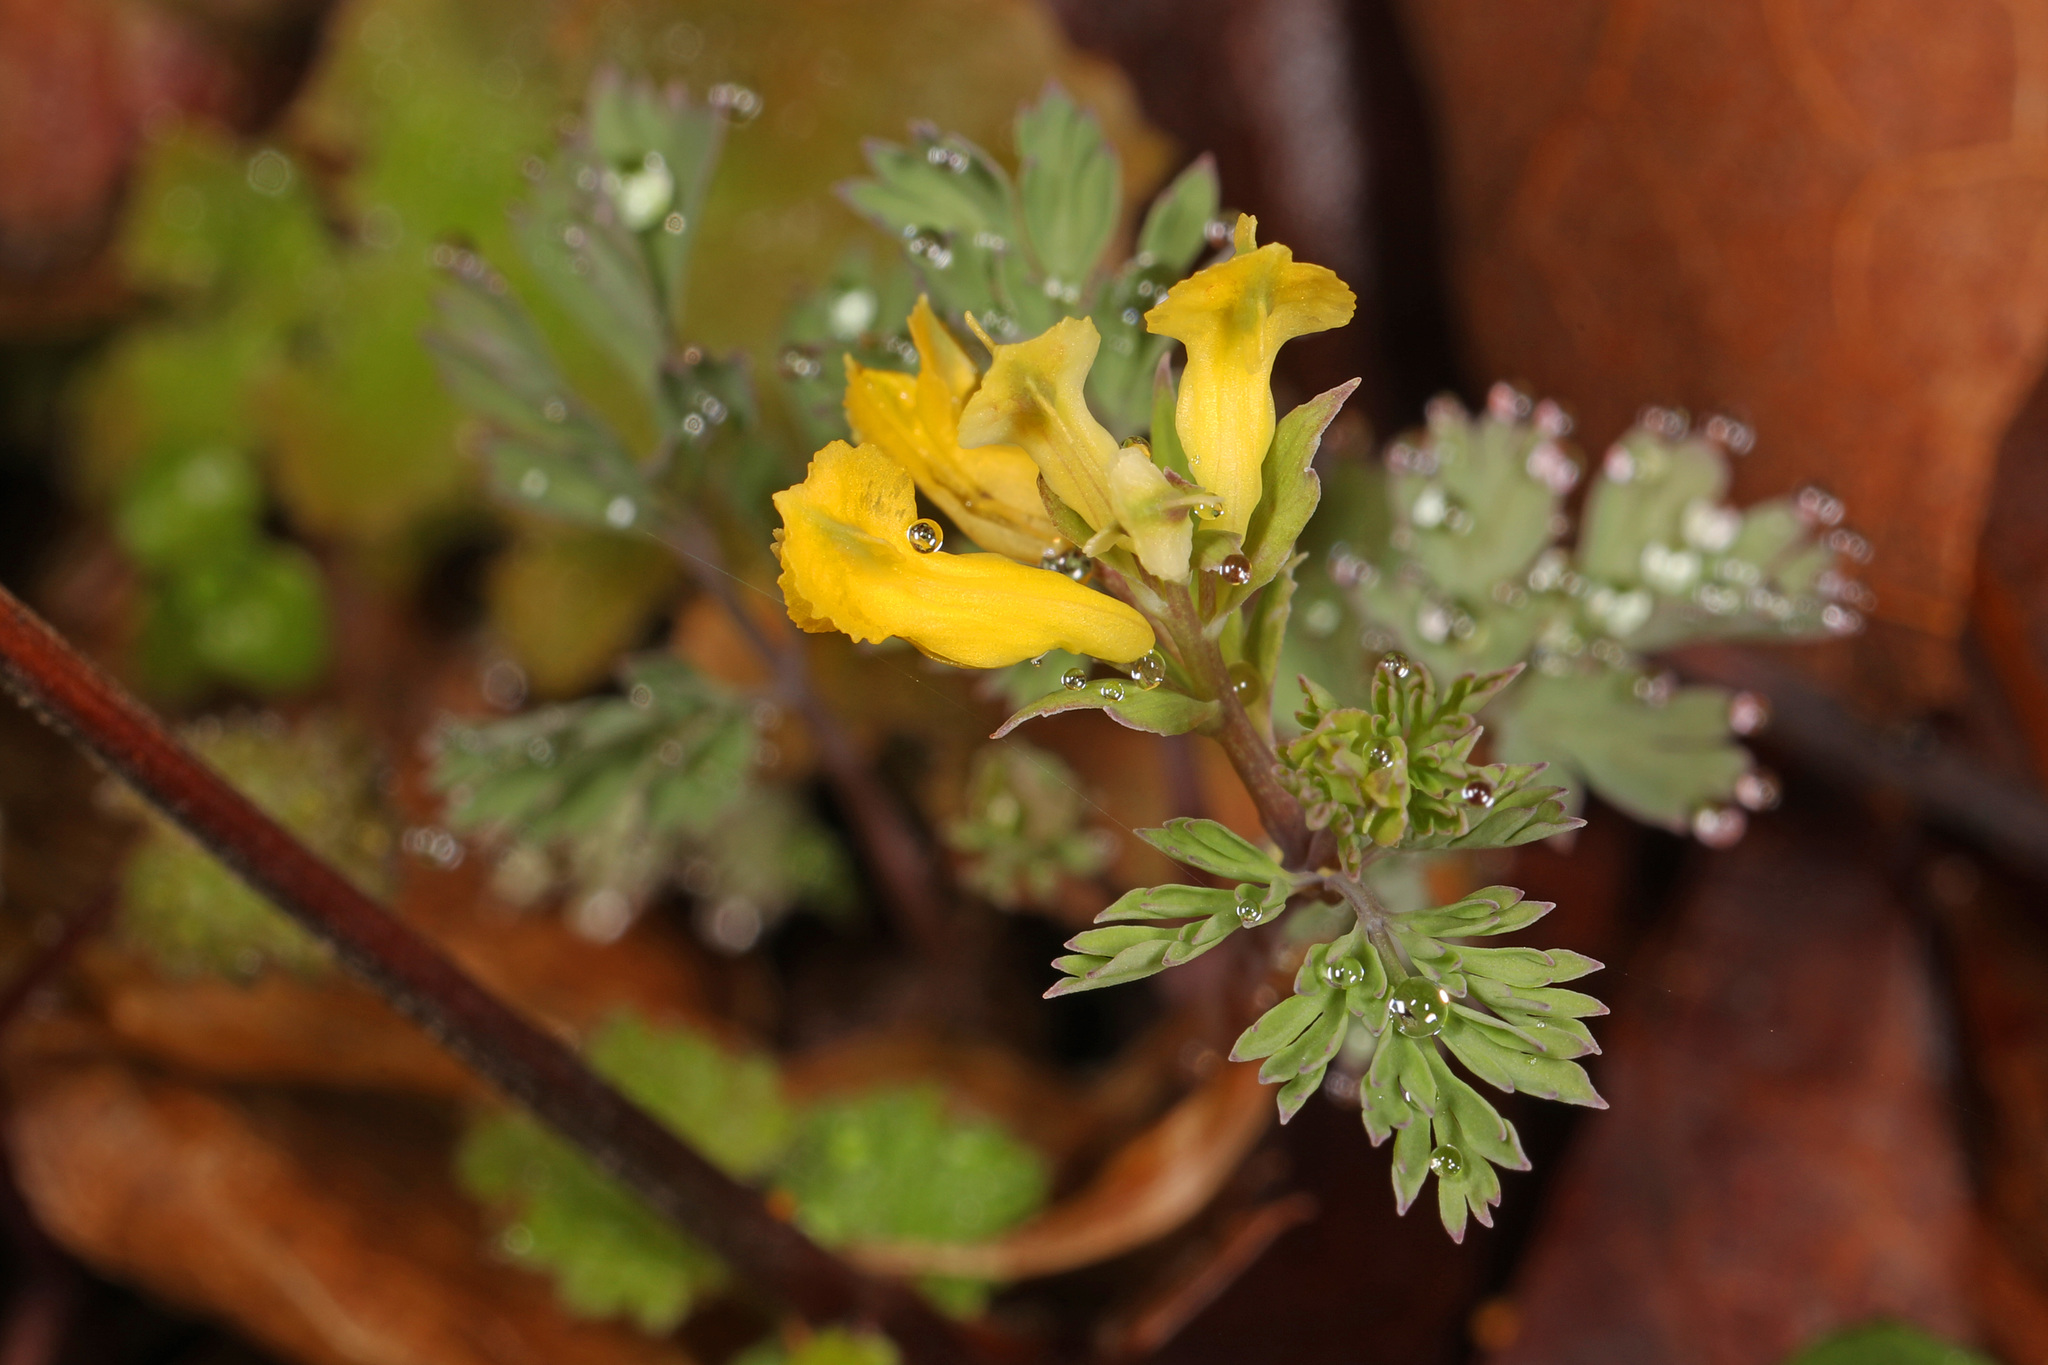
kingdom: Plantae
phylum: Tracheophyta
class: Magnoliopsida
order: Ranunculales
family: Papaveraceae
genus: Corydalis
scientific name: Corydalis flavula
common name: Yellow corydalis
